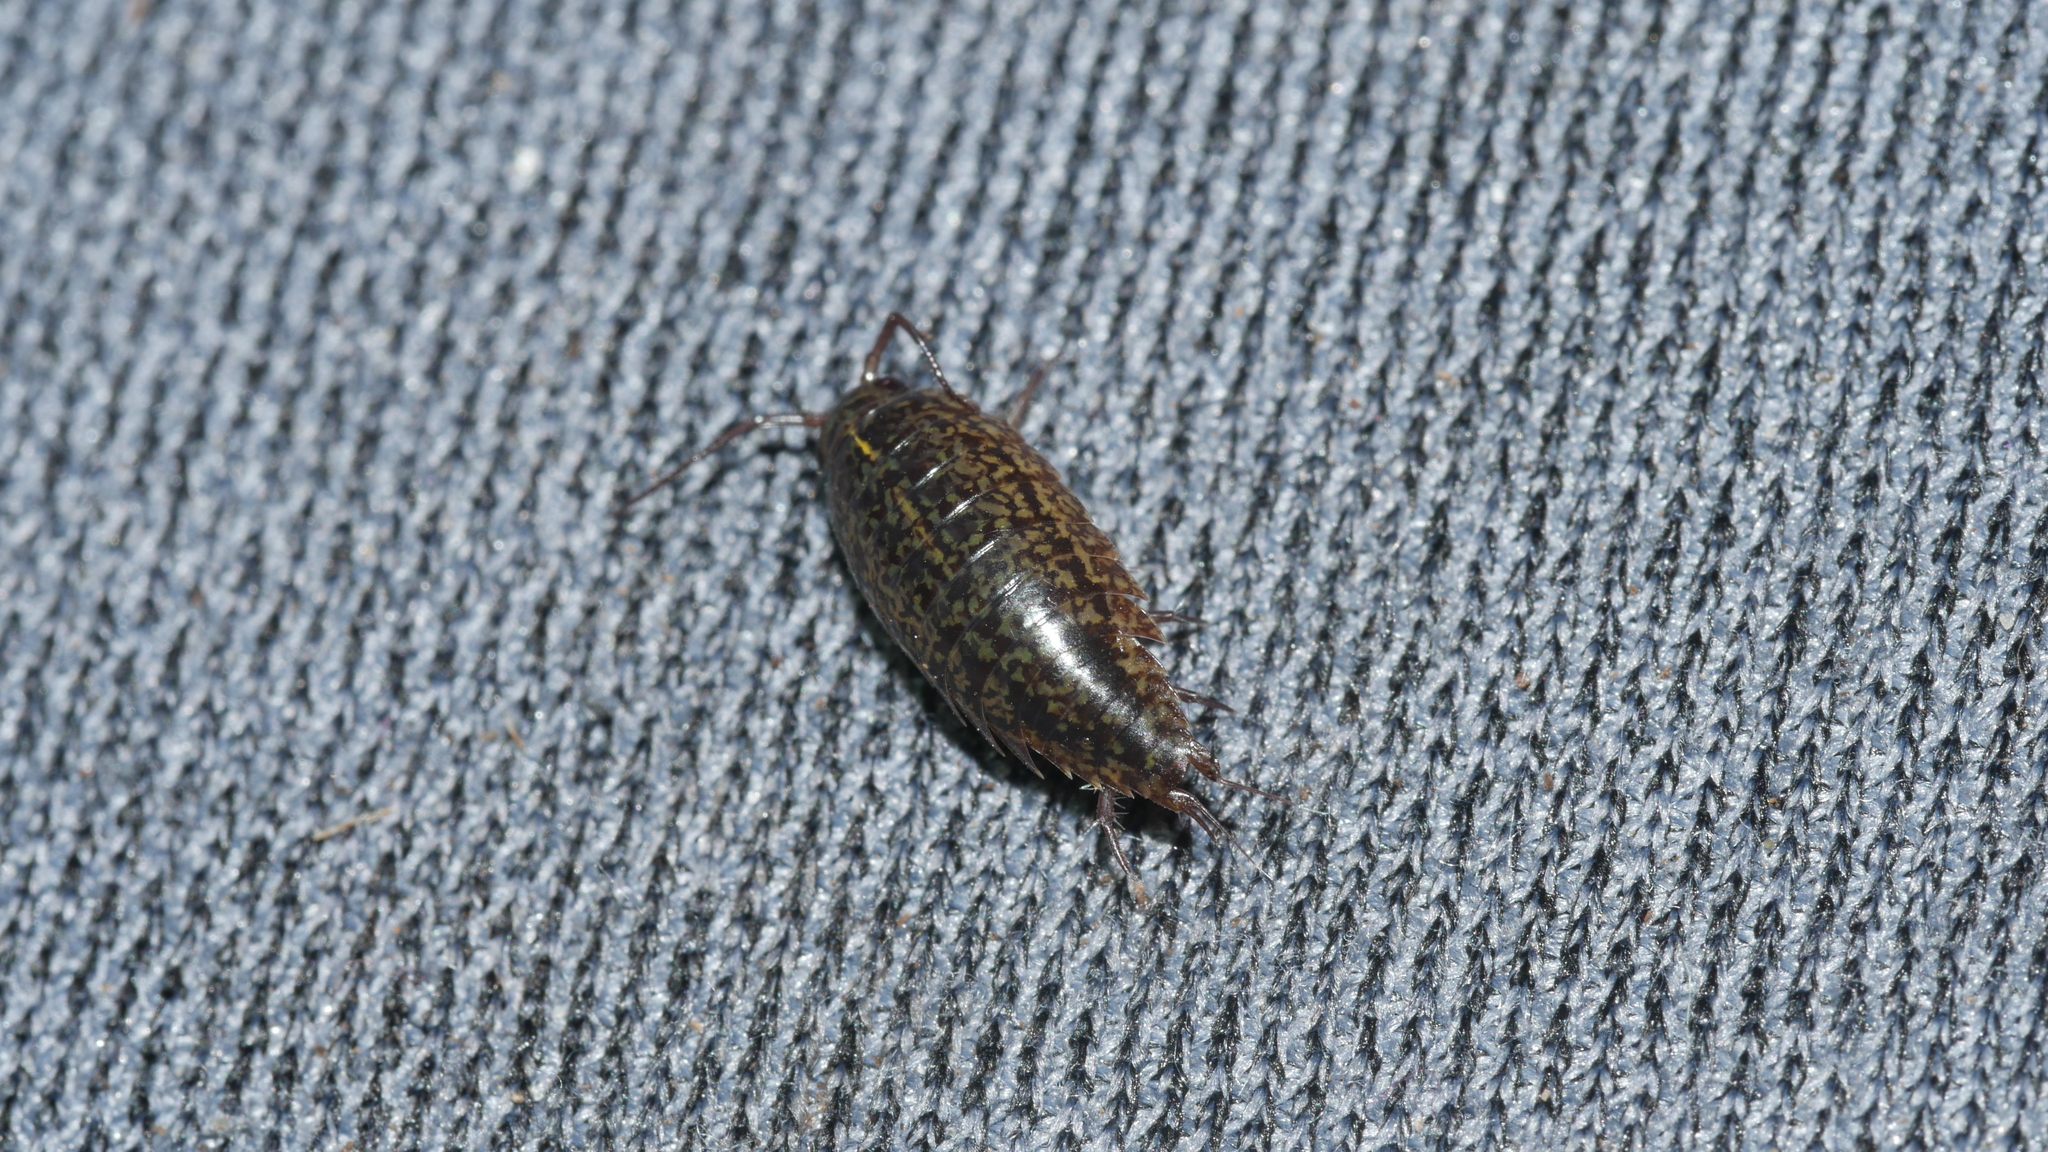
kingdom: Animalia
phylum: Arthropoda
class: Malacostraca
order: Isopoda
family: Ligiidae
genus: Ligidium
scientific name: Ligidium elrodii
